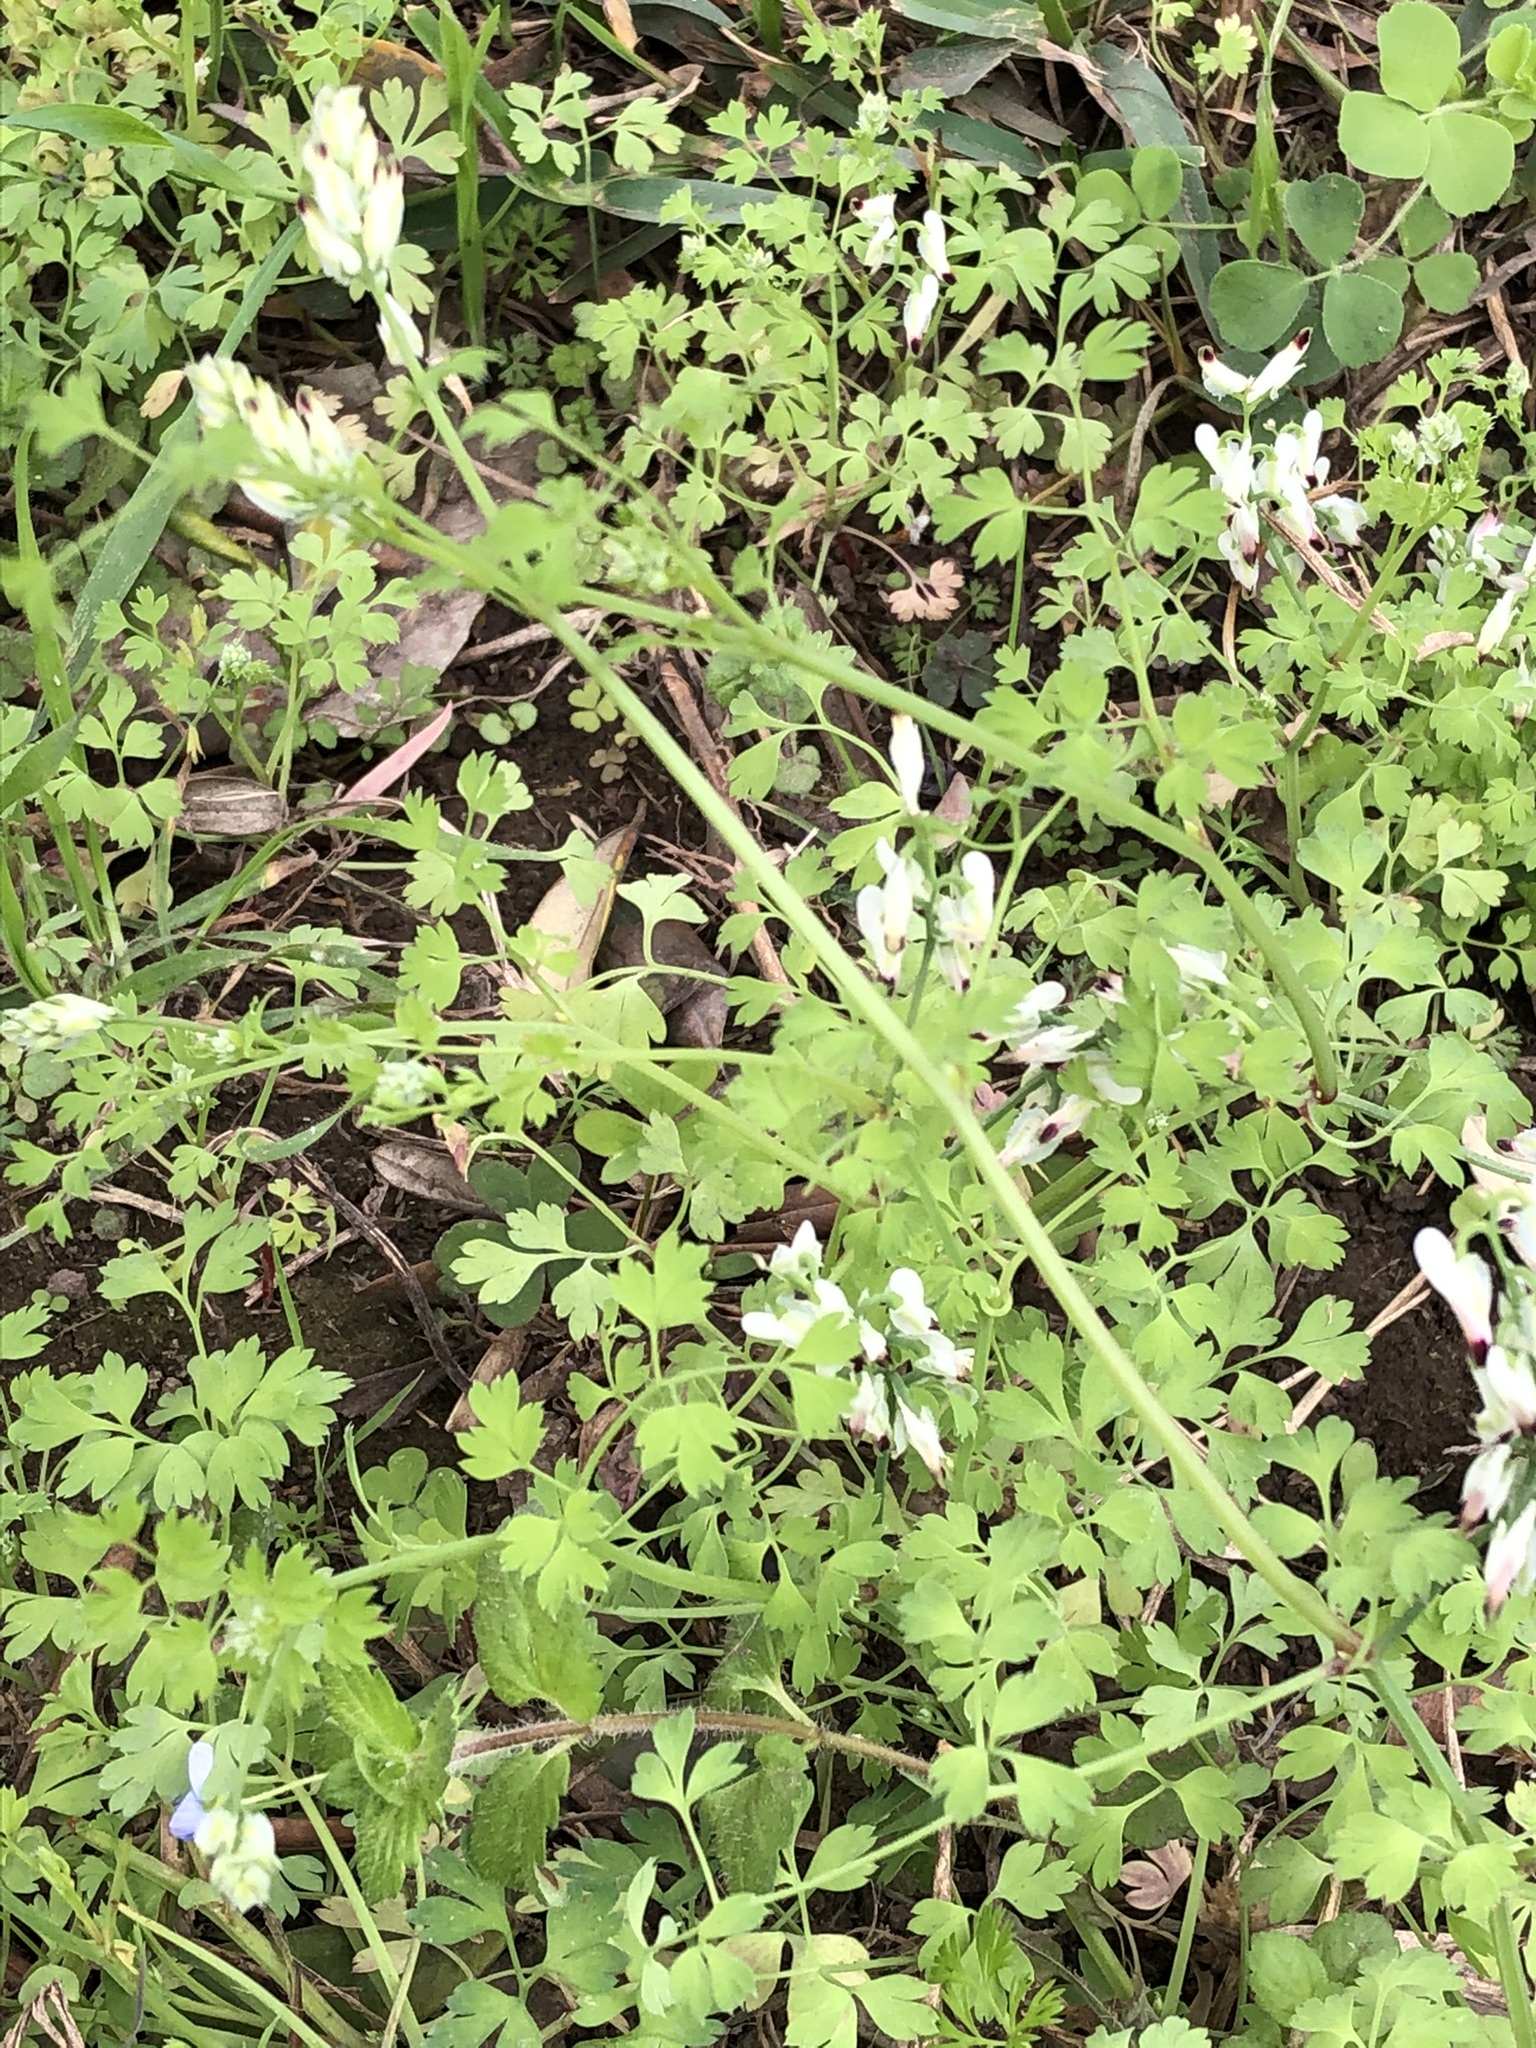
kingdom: Plantae
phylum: Tracheophyta
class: Magnoliopsida
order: Ranunculales
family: Papaveraceae
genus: Fumaria
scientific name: Fumaria capreolata
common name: White ramping-fumitory
